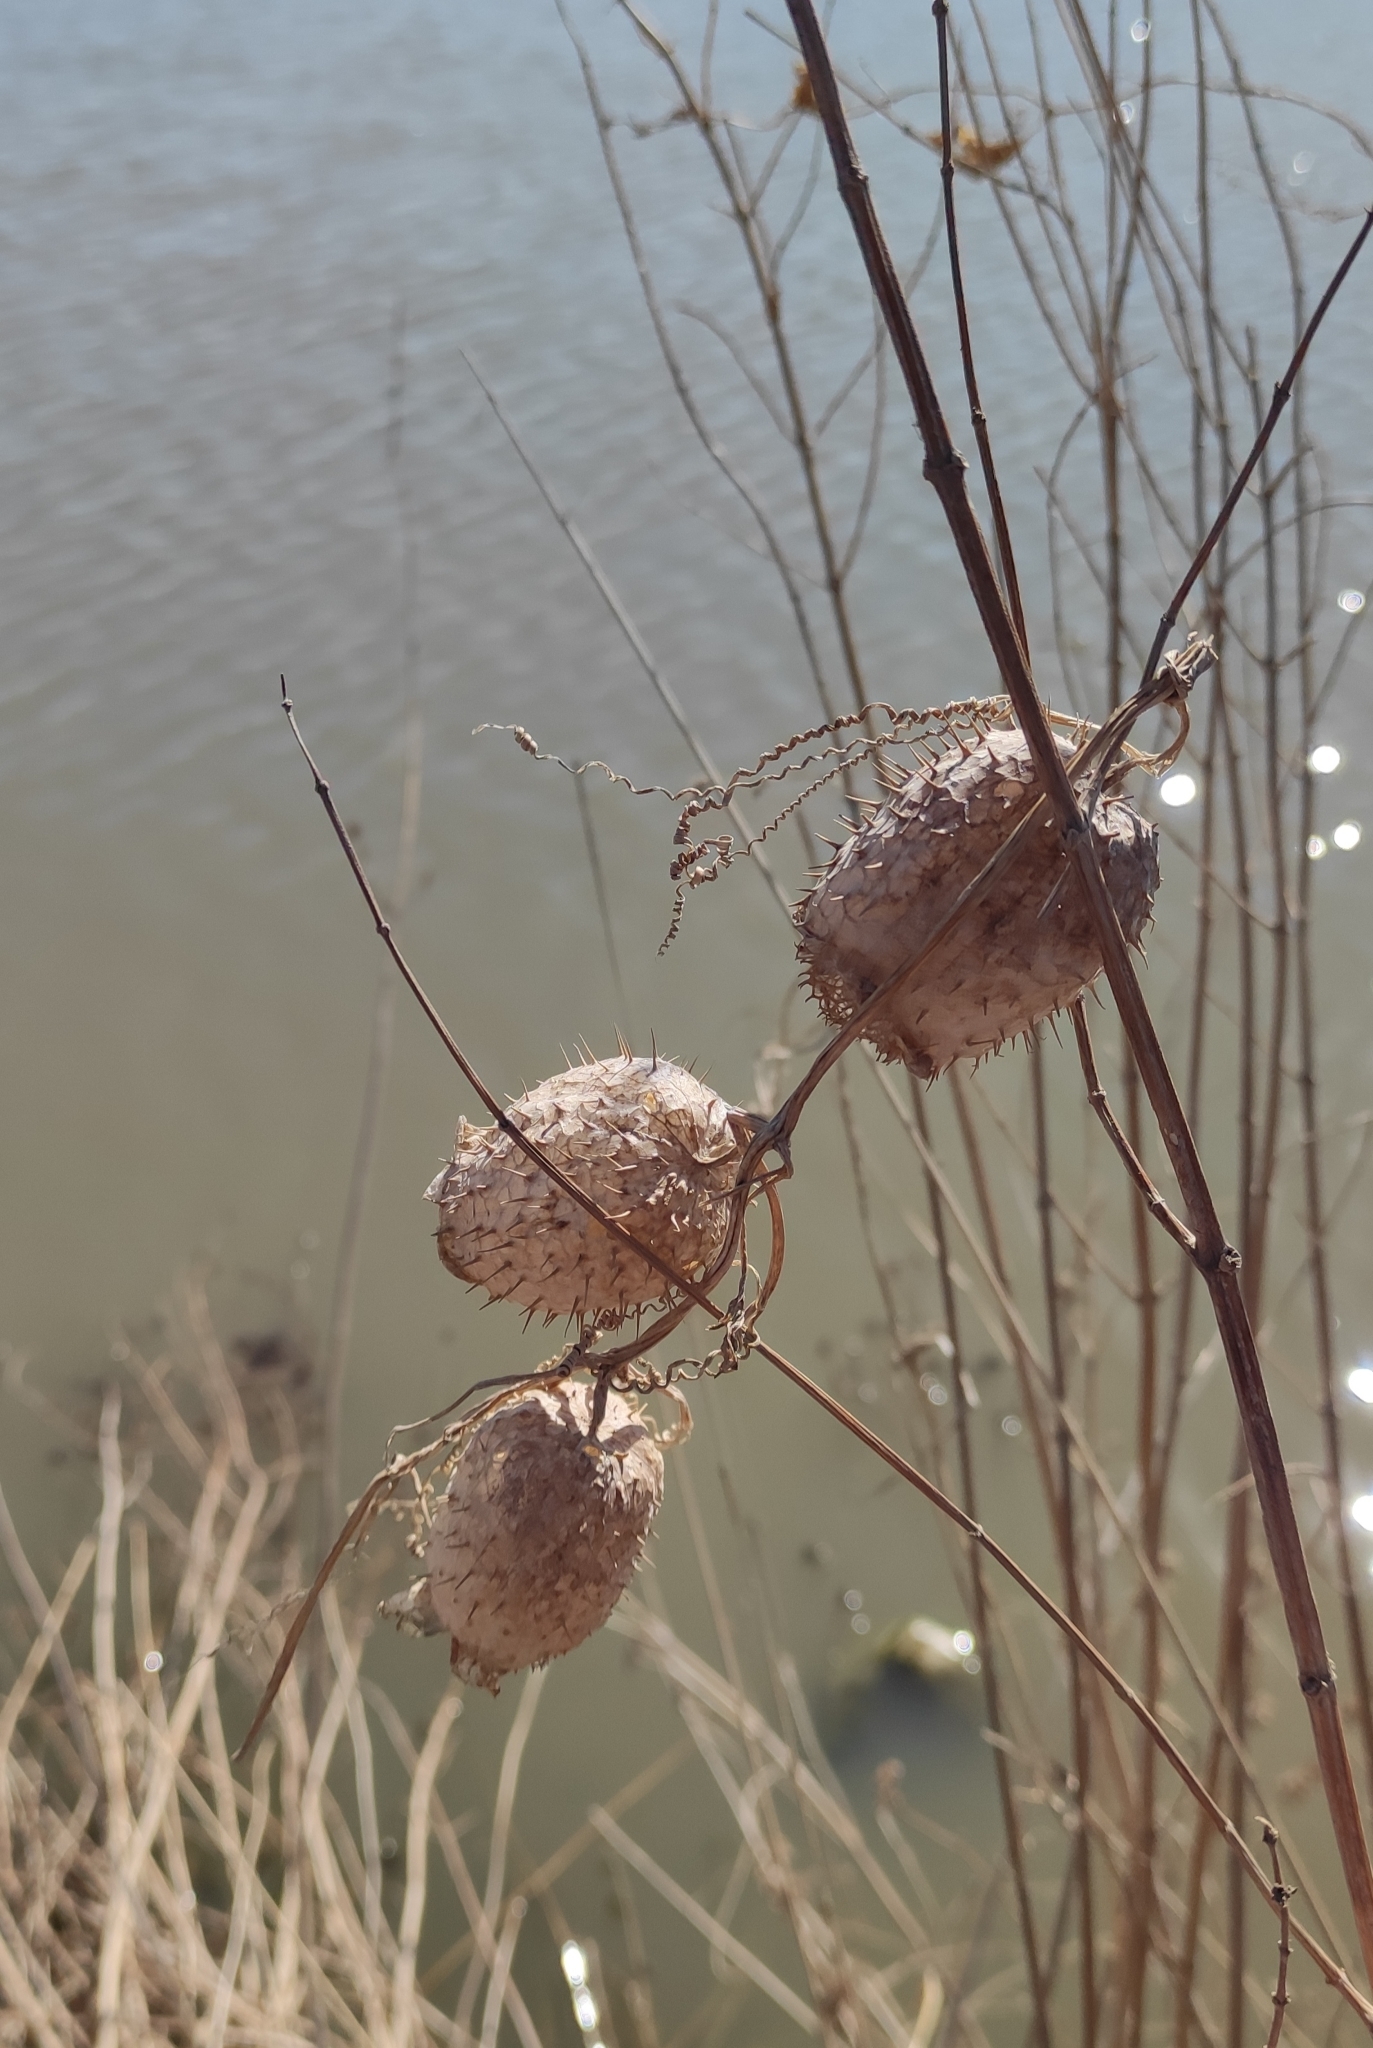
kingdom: Plantae
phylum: Tracheophyta
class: Magnoliopsida
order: Cucurbitales
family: Cucurbitaceae
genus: Echinocystis
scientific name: Echinocystis lobata
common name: Wild cucumber
